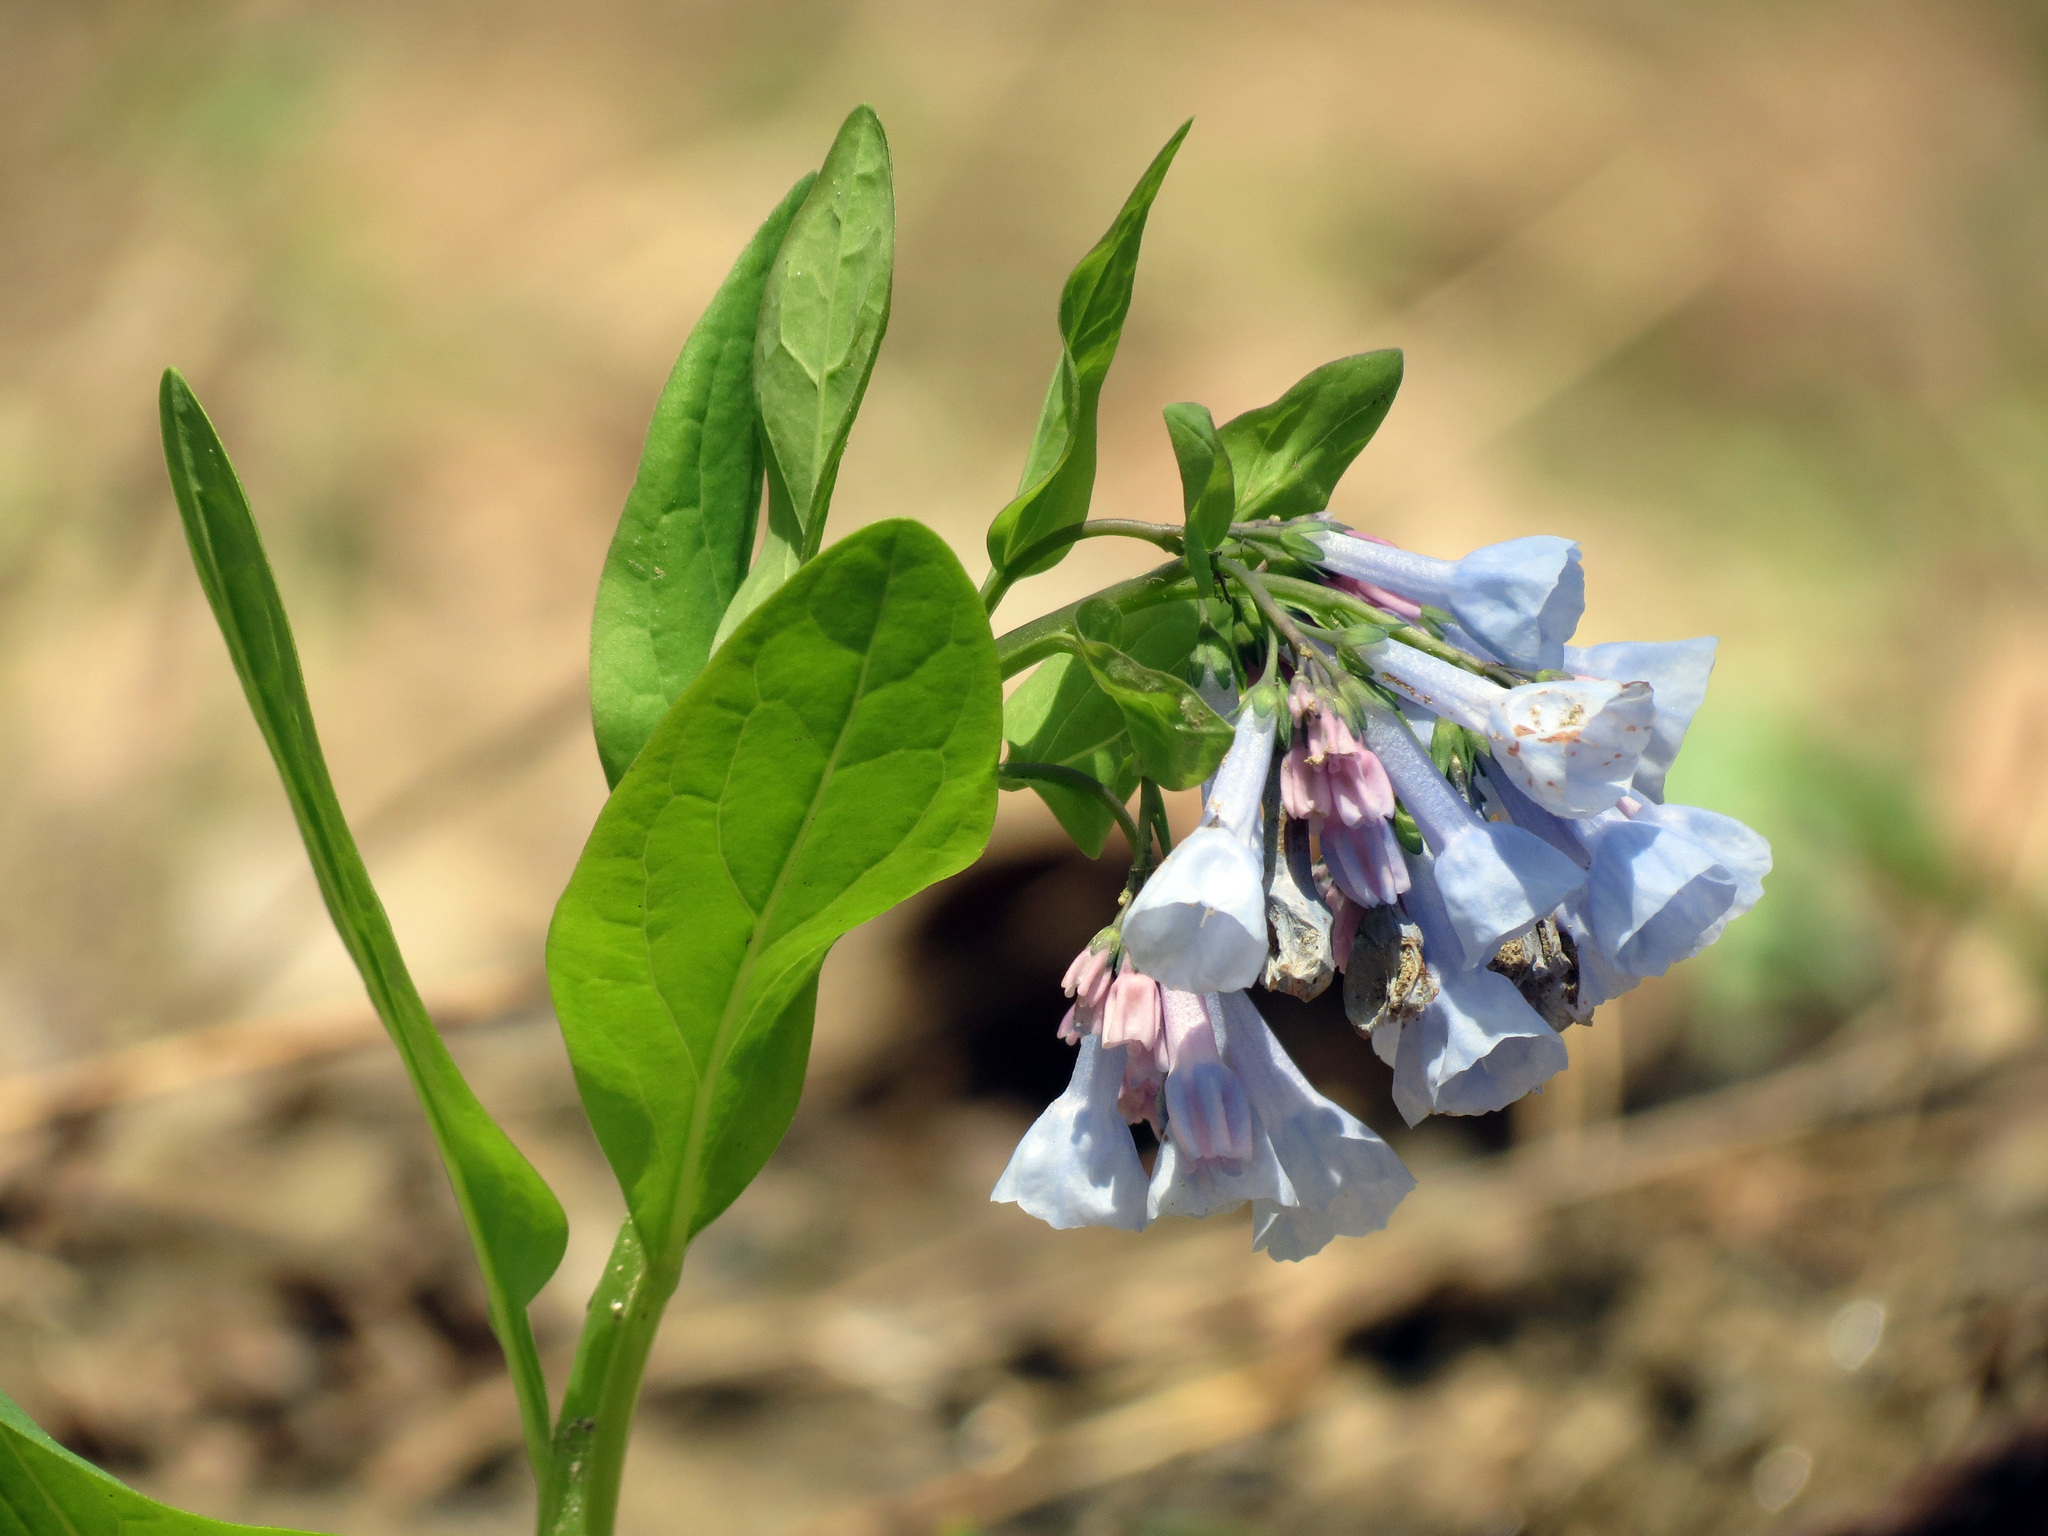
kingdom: Plantae
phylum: Tracheophyta
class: Magnoliopsida
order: Boraginales
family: Boraginaceae
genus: Mertensia
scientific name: Mertensia virginica
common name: Virginia bluebells
